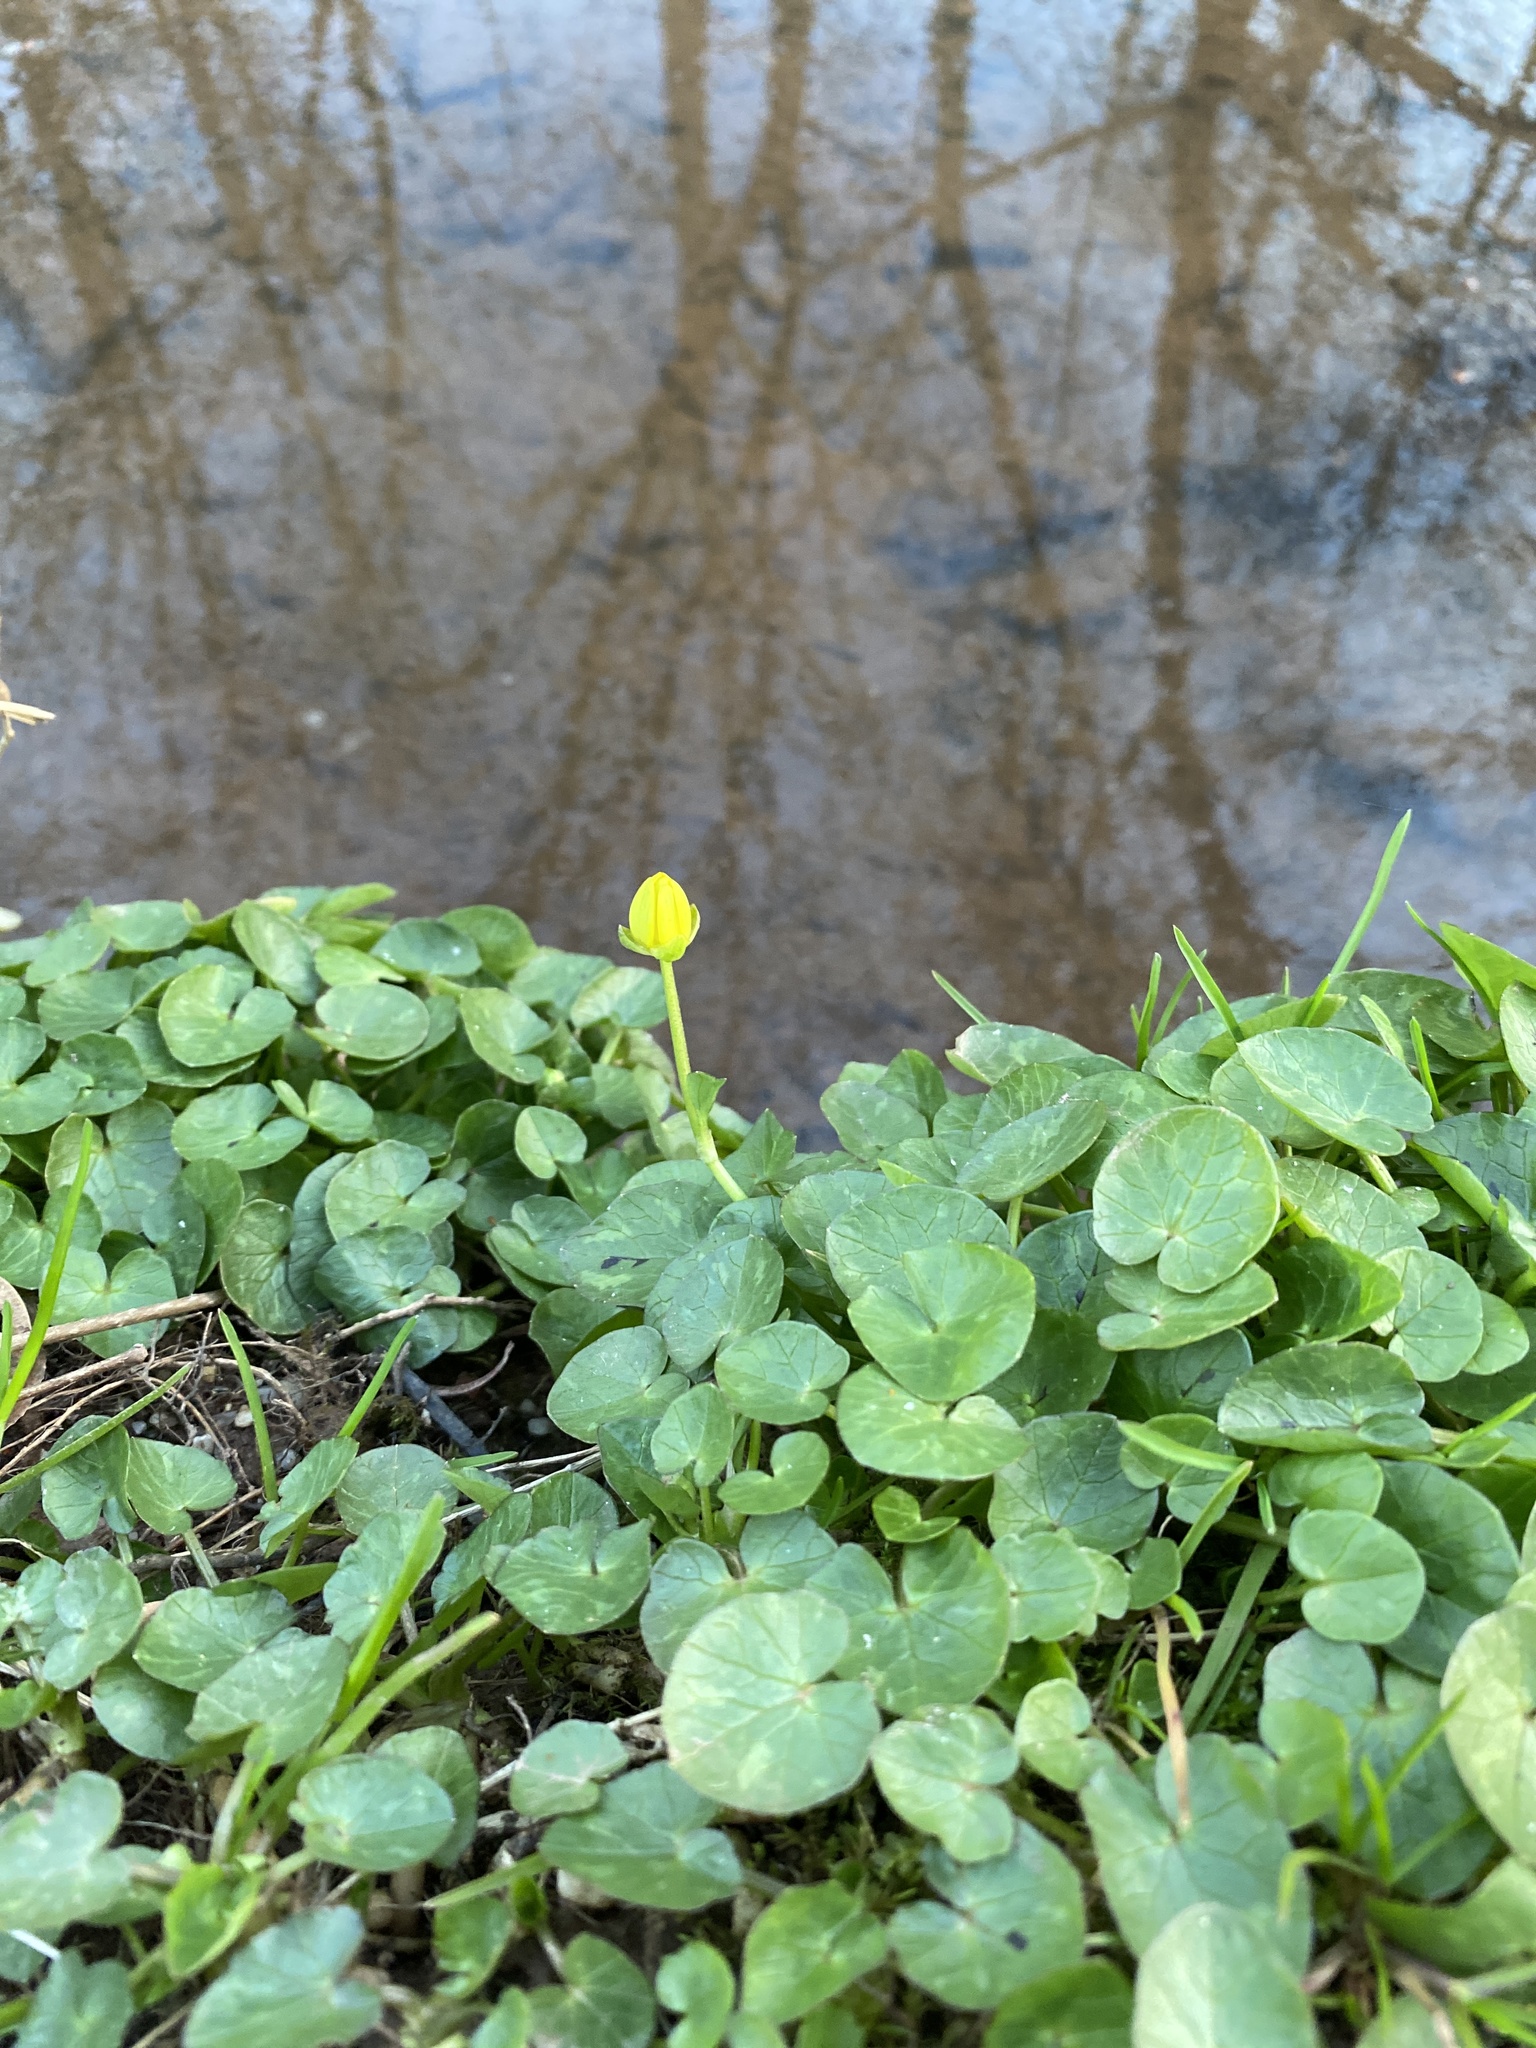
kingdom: Plantae
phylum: Tracheophyta
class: Magnoliopsida
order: Ranunculales
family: Ranunculaceae
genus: Ficaria
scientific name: Ficaria verna
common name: Lesser celandine
